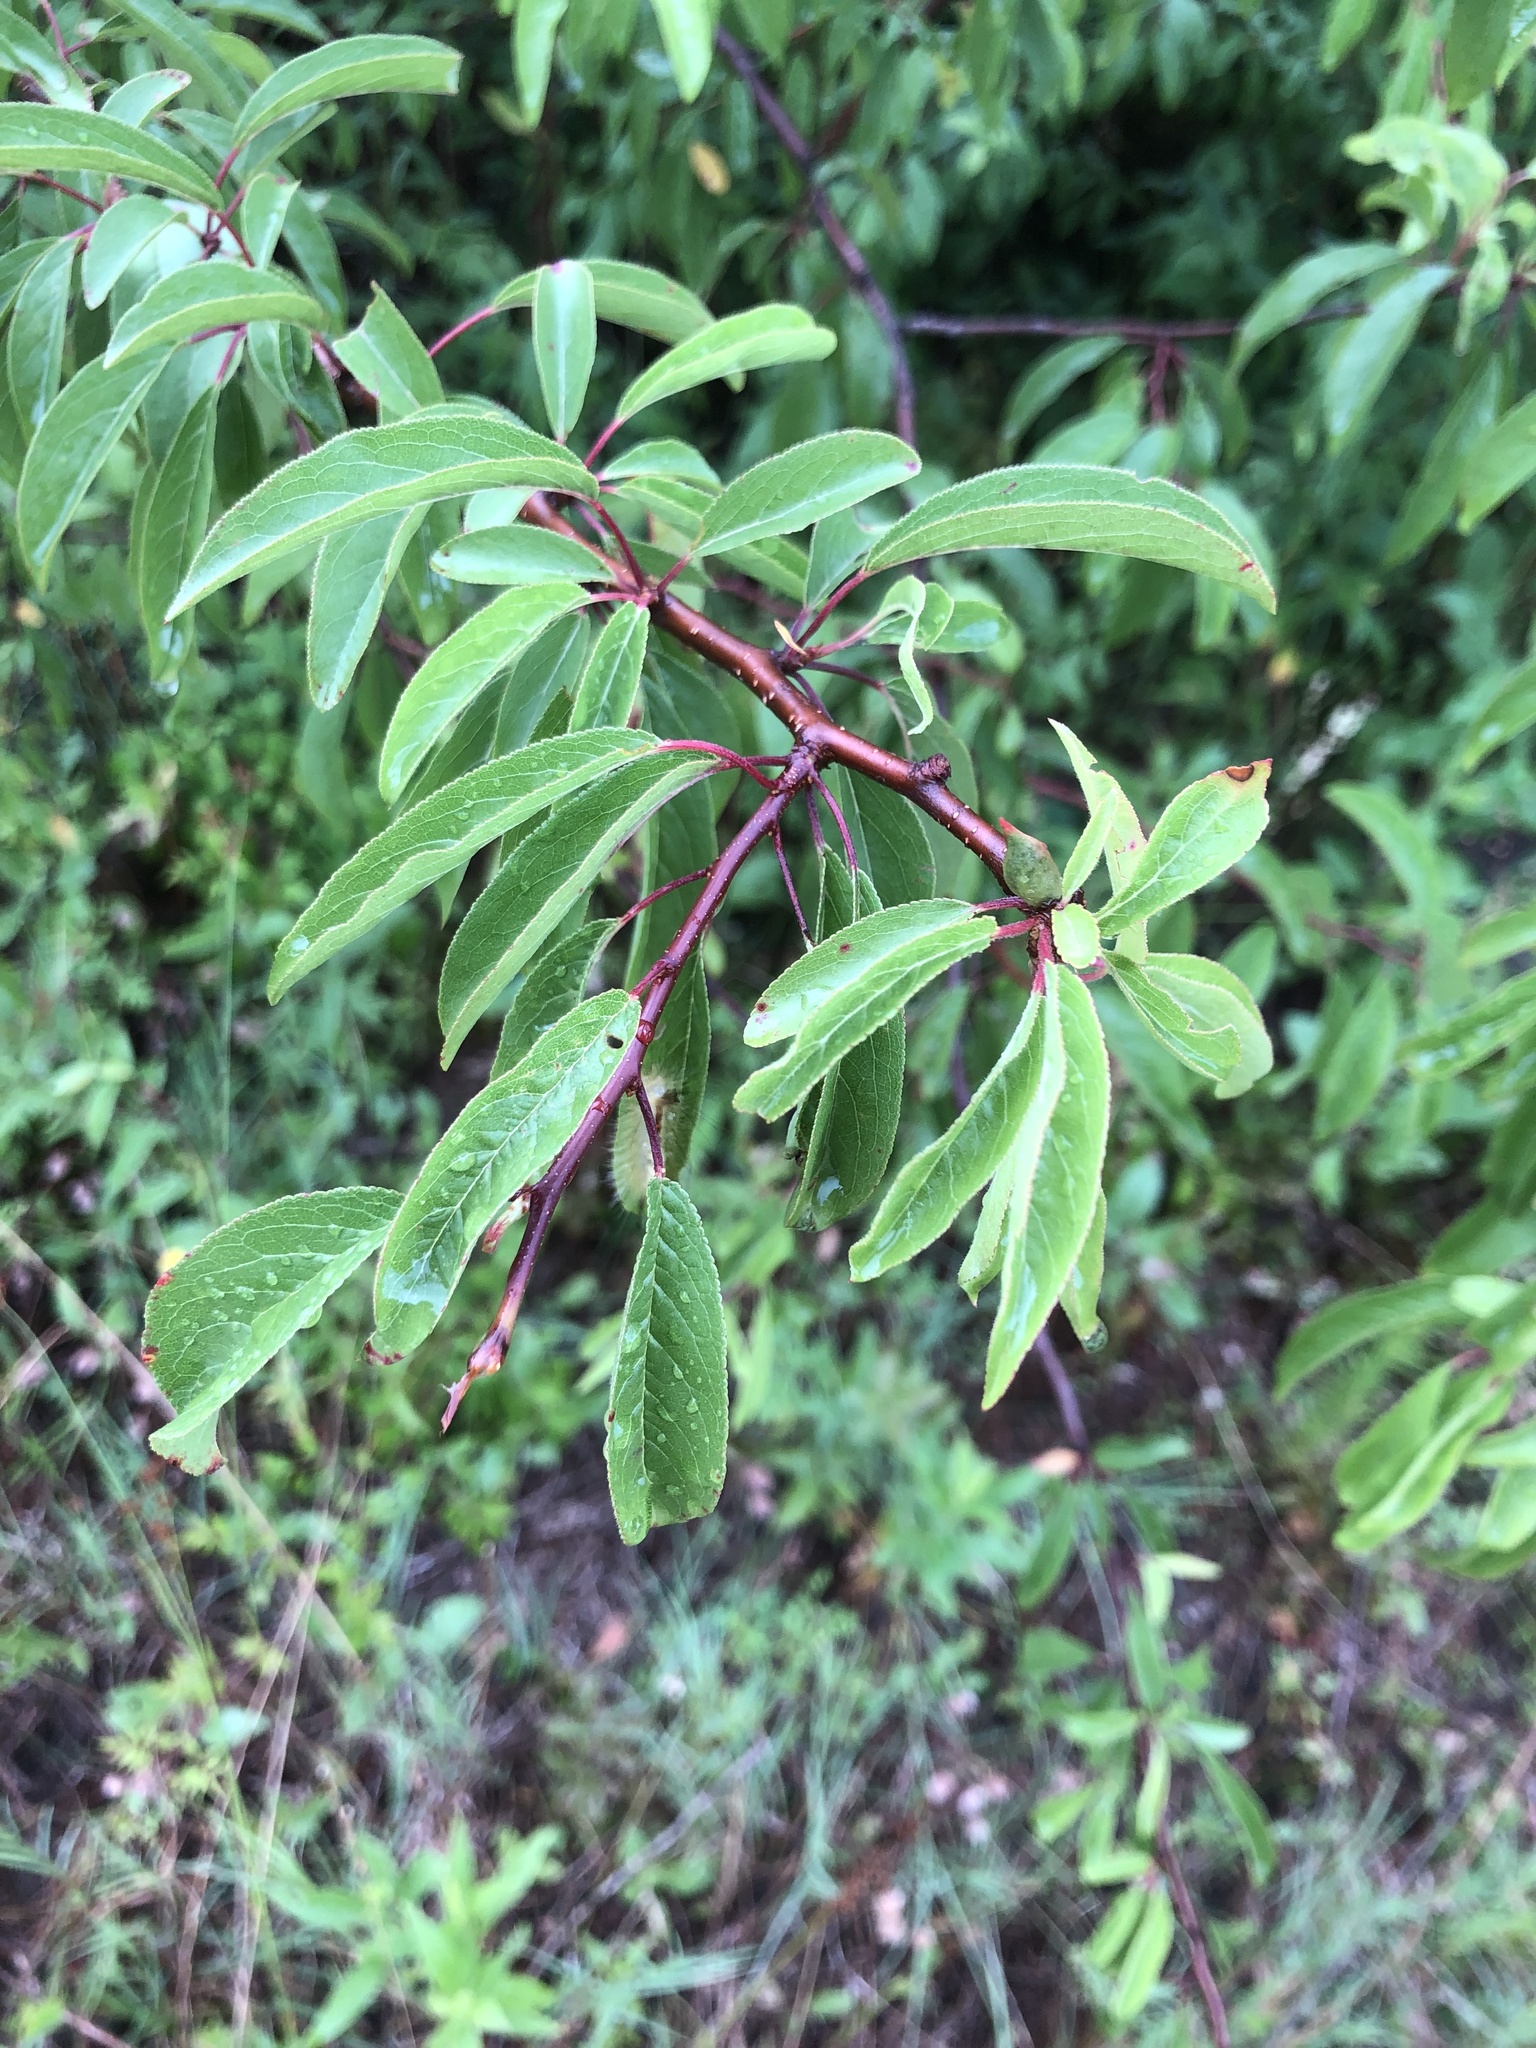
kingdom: Plantae
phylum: Tracheophyta
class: Magnoliopsida
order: Rosales
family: Rosaceae
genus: Prunus
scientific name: Prunus angustifolia
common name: Cherokee plum
